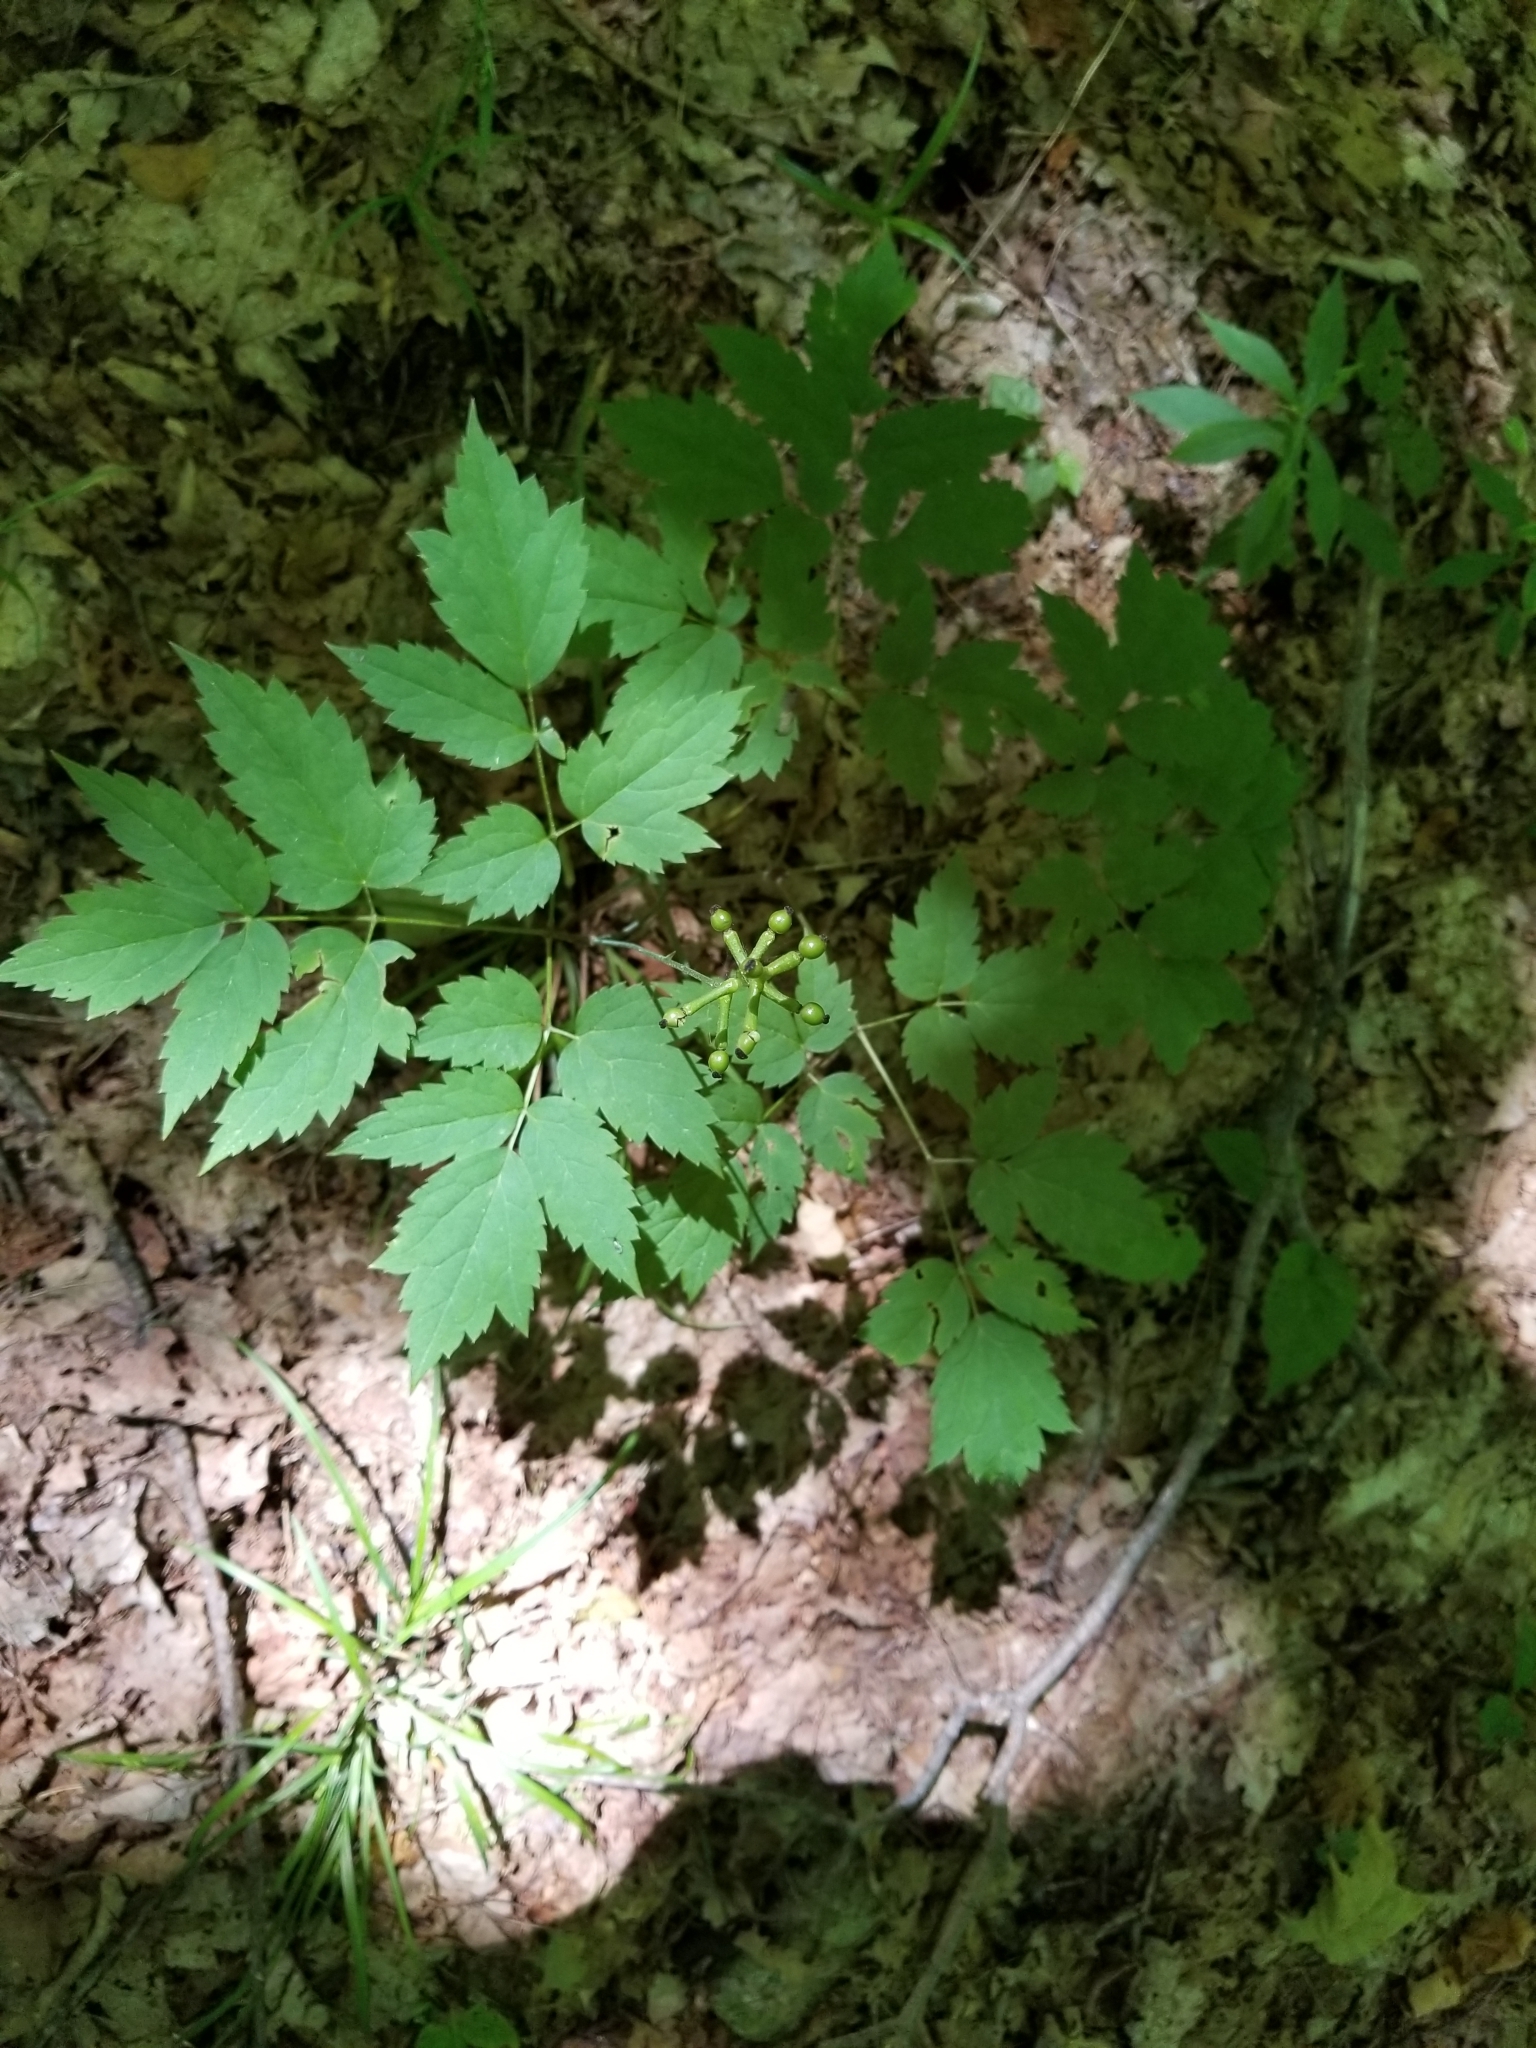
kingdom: Plantae
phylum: Tracheophyta
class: Magnoliopsida
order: Ranunculales
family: Ranunculaceae
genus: Actaea
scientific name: Actaea pachypoda
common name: Doll's-eyes
